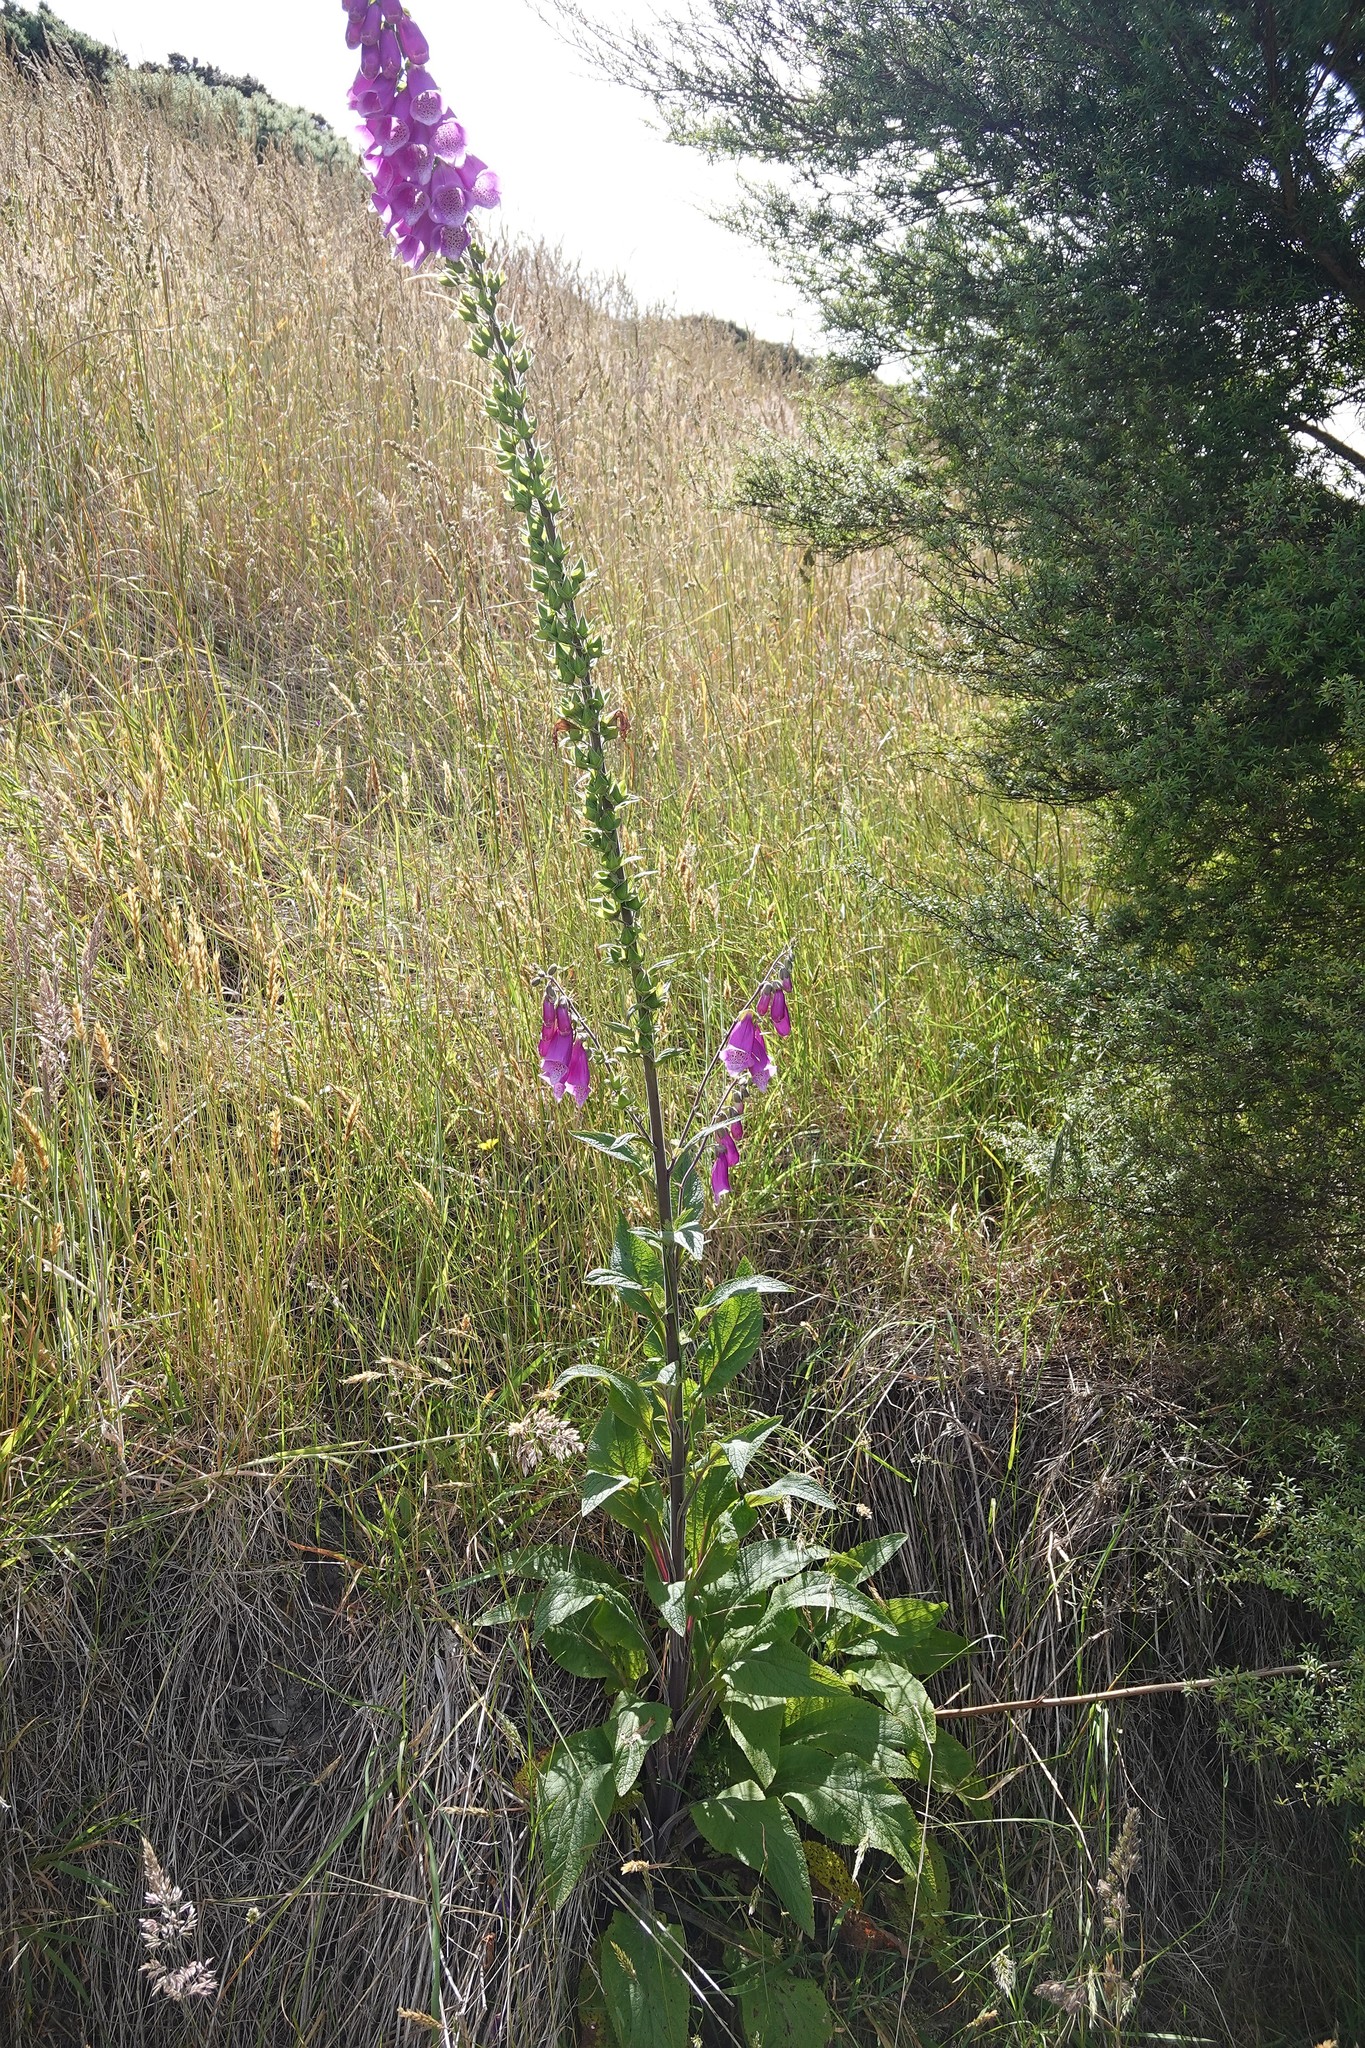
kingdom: Plantae
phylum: Tracheophyta
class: Magnoliopsida
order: Lamiales
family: Plantaginaceae
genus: Digitalis
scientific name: Digitalis purpurea
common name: Foxglove
